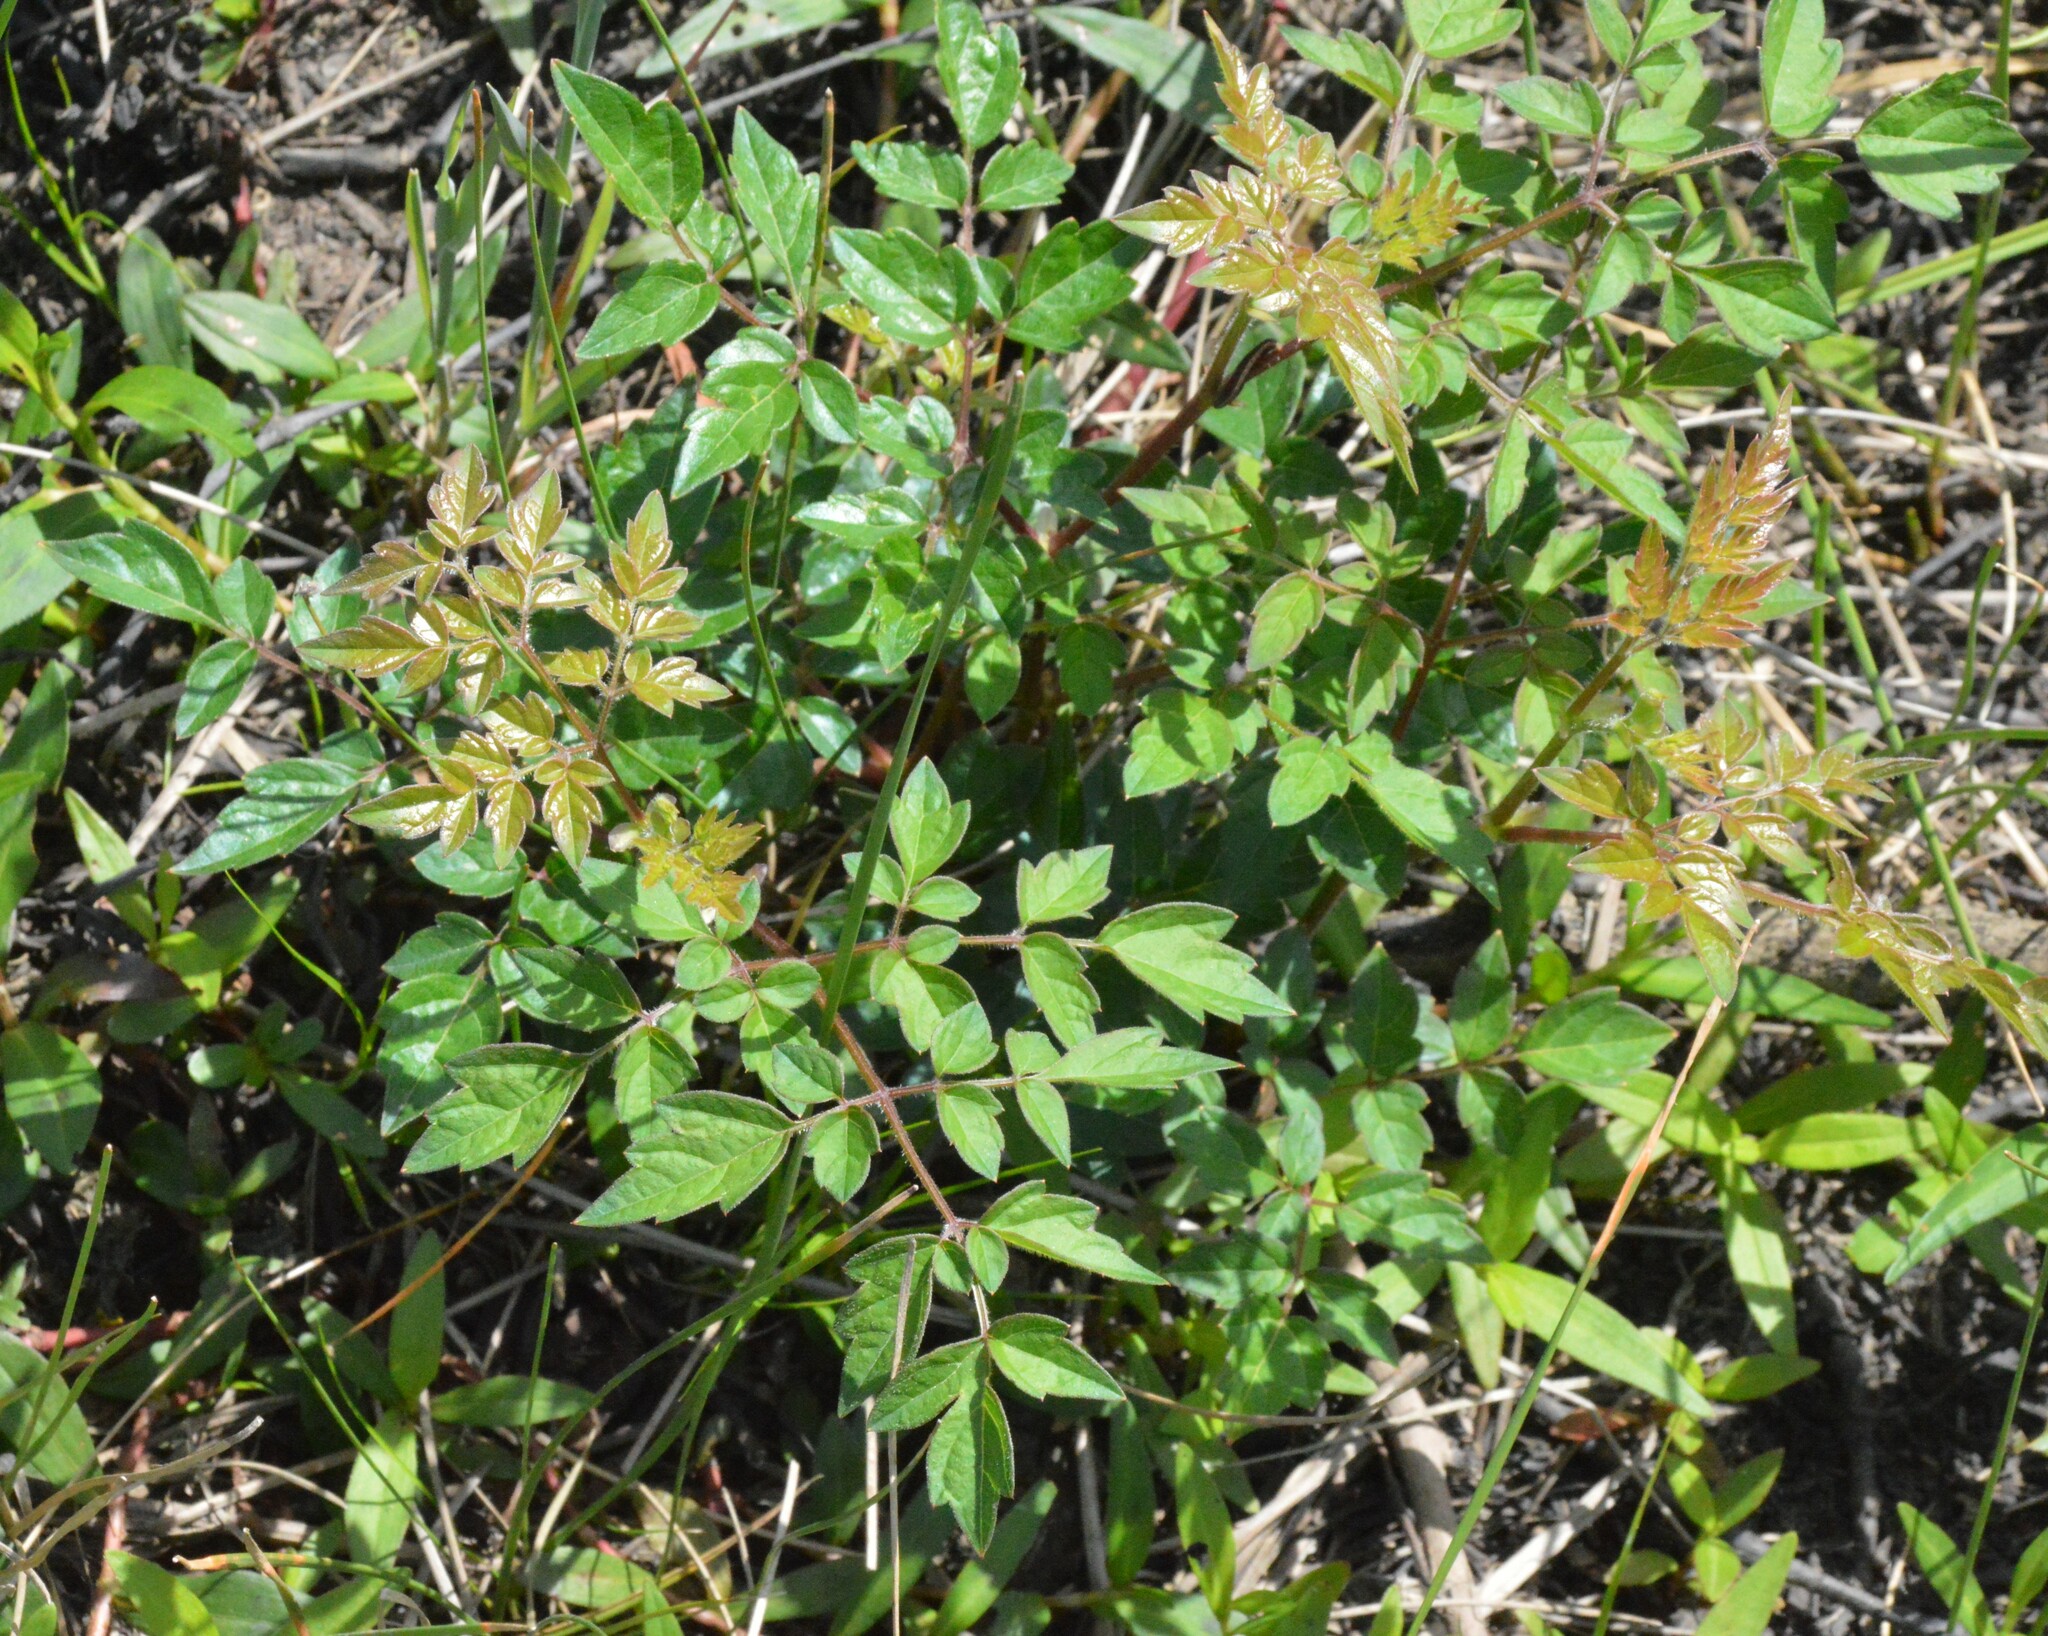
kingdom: Plantae
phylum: Tracheophyta
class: Magnoliopsida
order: Vitales
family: Vitaceae
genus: Nekemias
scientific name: Nekemias arborea
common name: Peppervine
